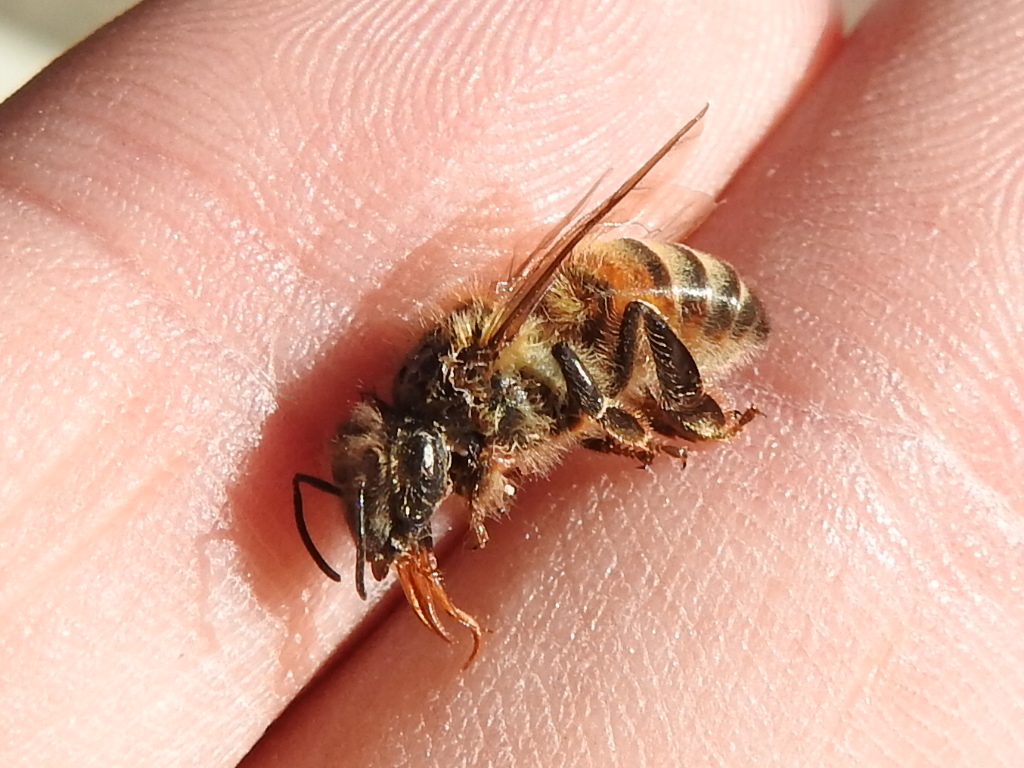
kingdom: Animalia
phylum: Arthropoda
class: Insecta
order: Hymenoptera
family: Apidae
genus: Apis
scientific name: Apis mellifera
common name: Honey bee
